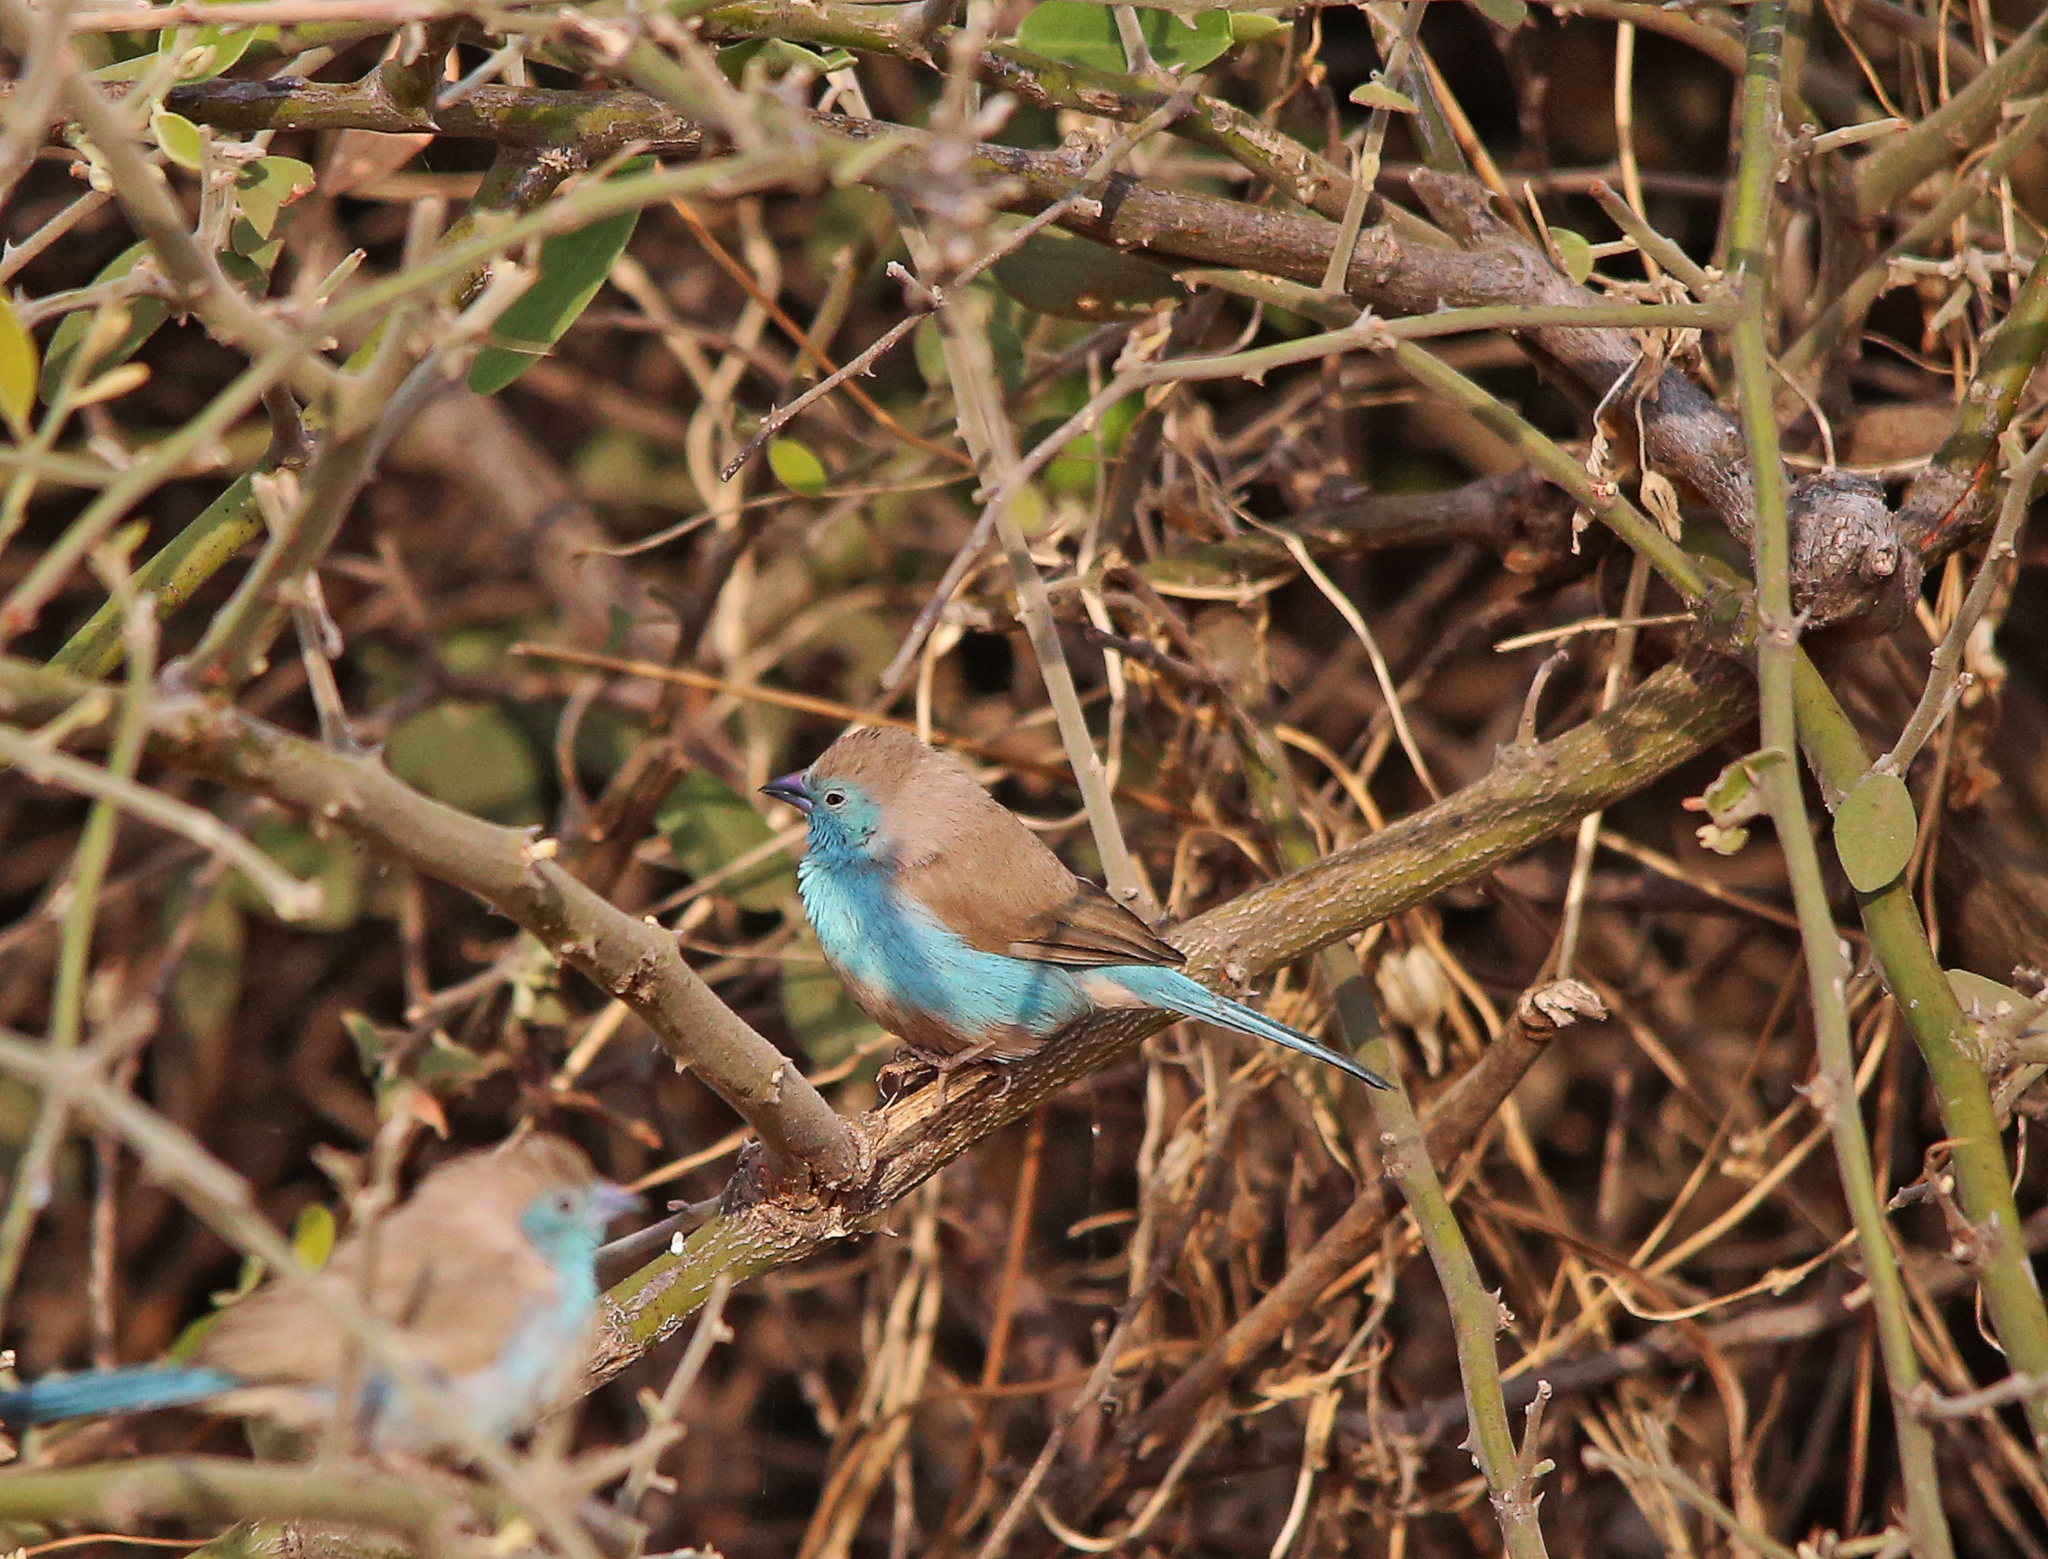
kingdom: Animalia
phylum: Chordata
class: Aves
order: Passeriformes
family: Estrildidae
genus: Uraeginthus
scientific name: Uraeginthus angolensis
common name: Blue waxbill
